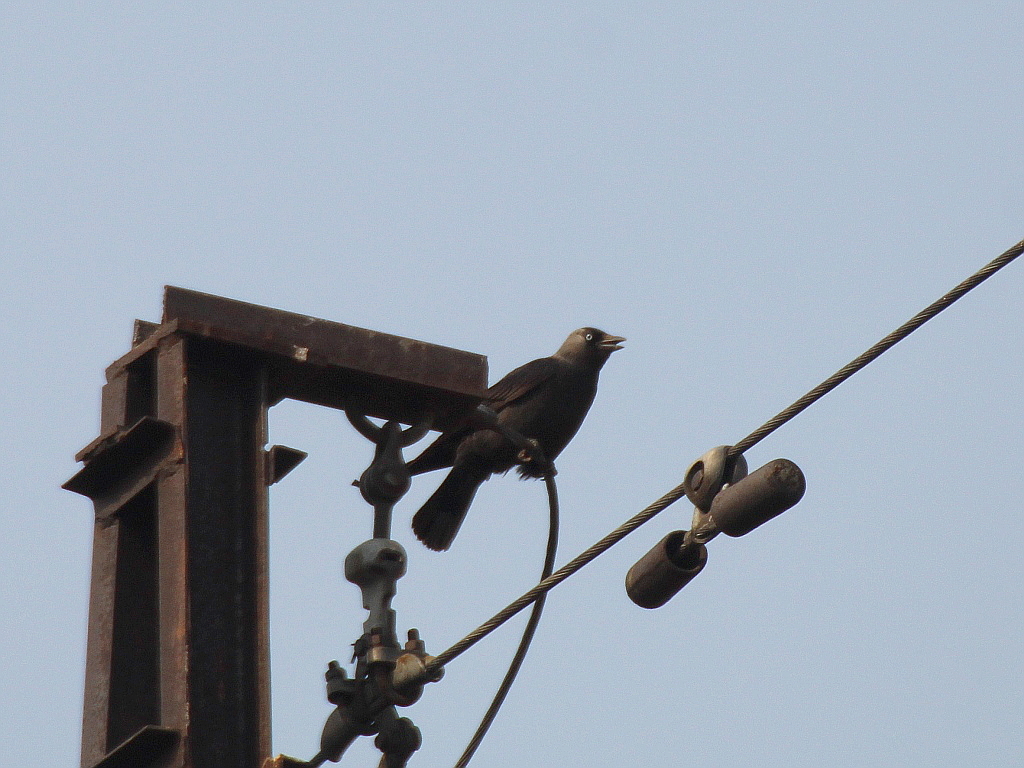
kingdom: Animalia
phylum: Chordata
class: Aves
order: Passeriformes
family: Corvidae
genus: Coloeus
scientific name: Coloeus monedula
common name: Western jackdaw
